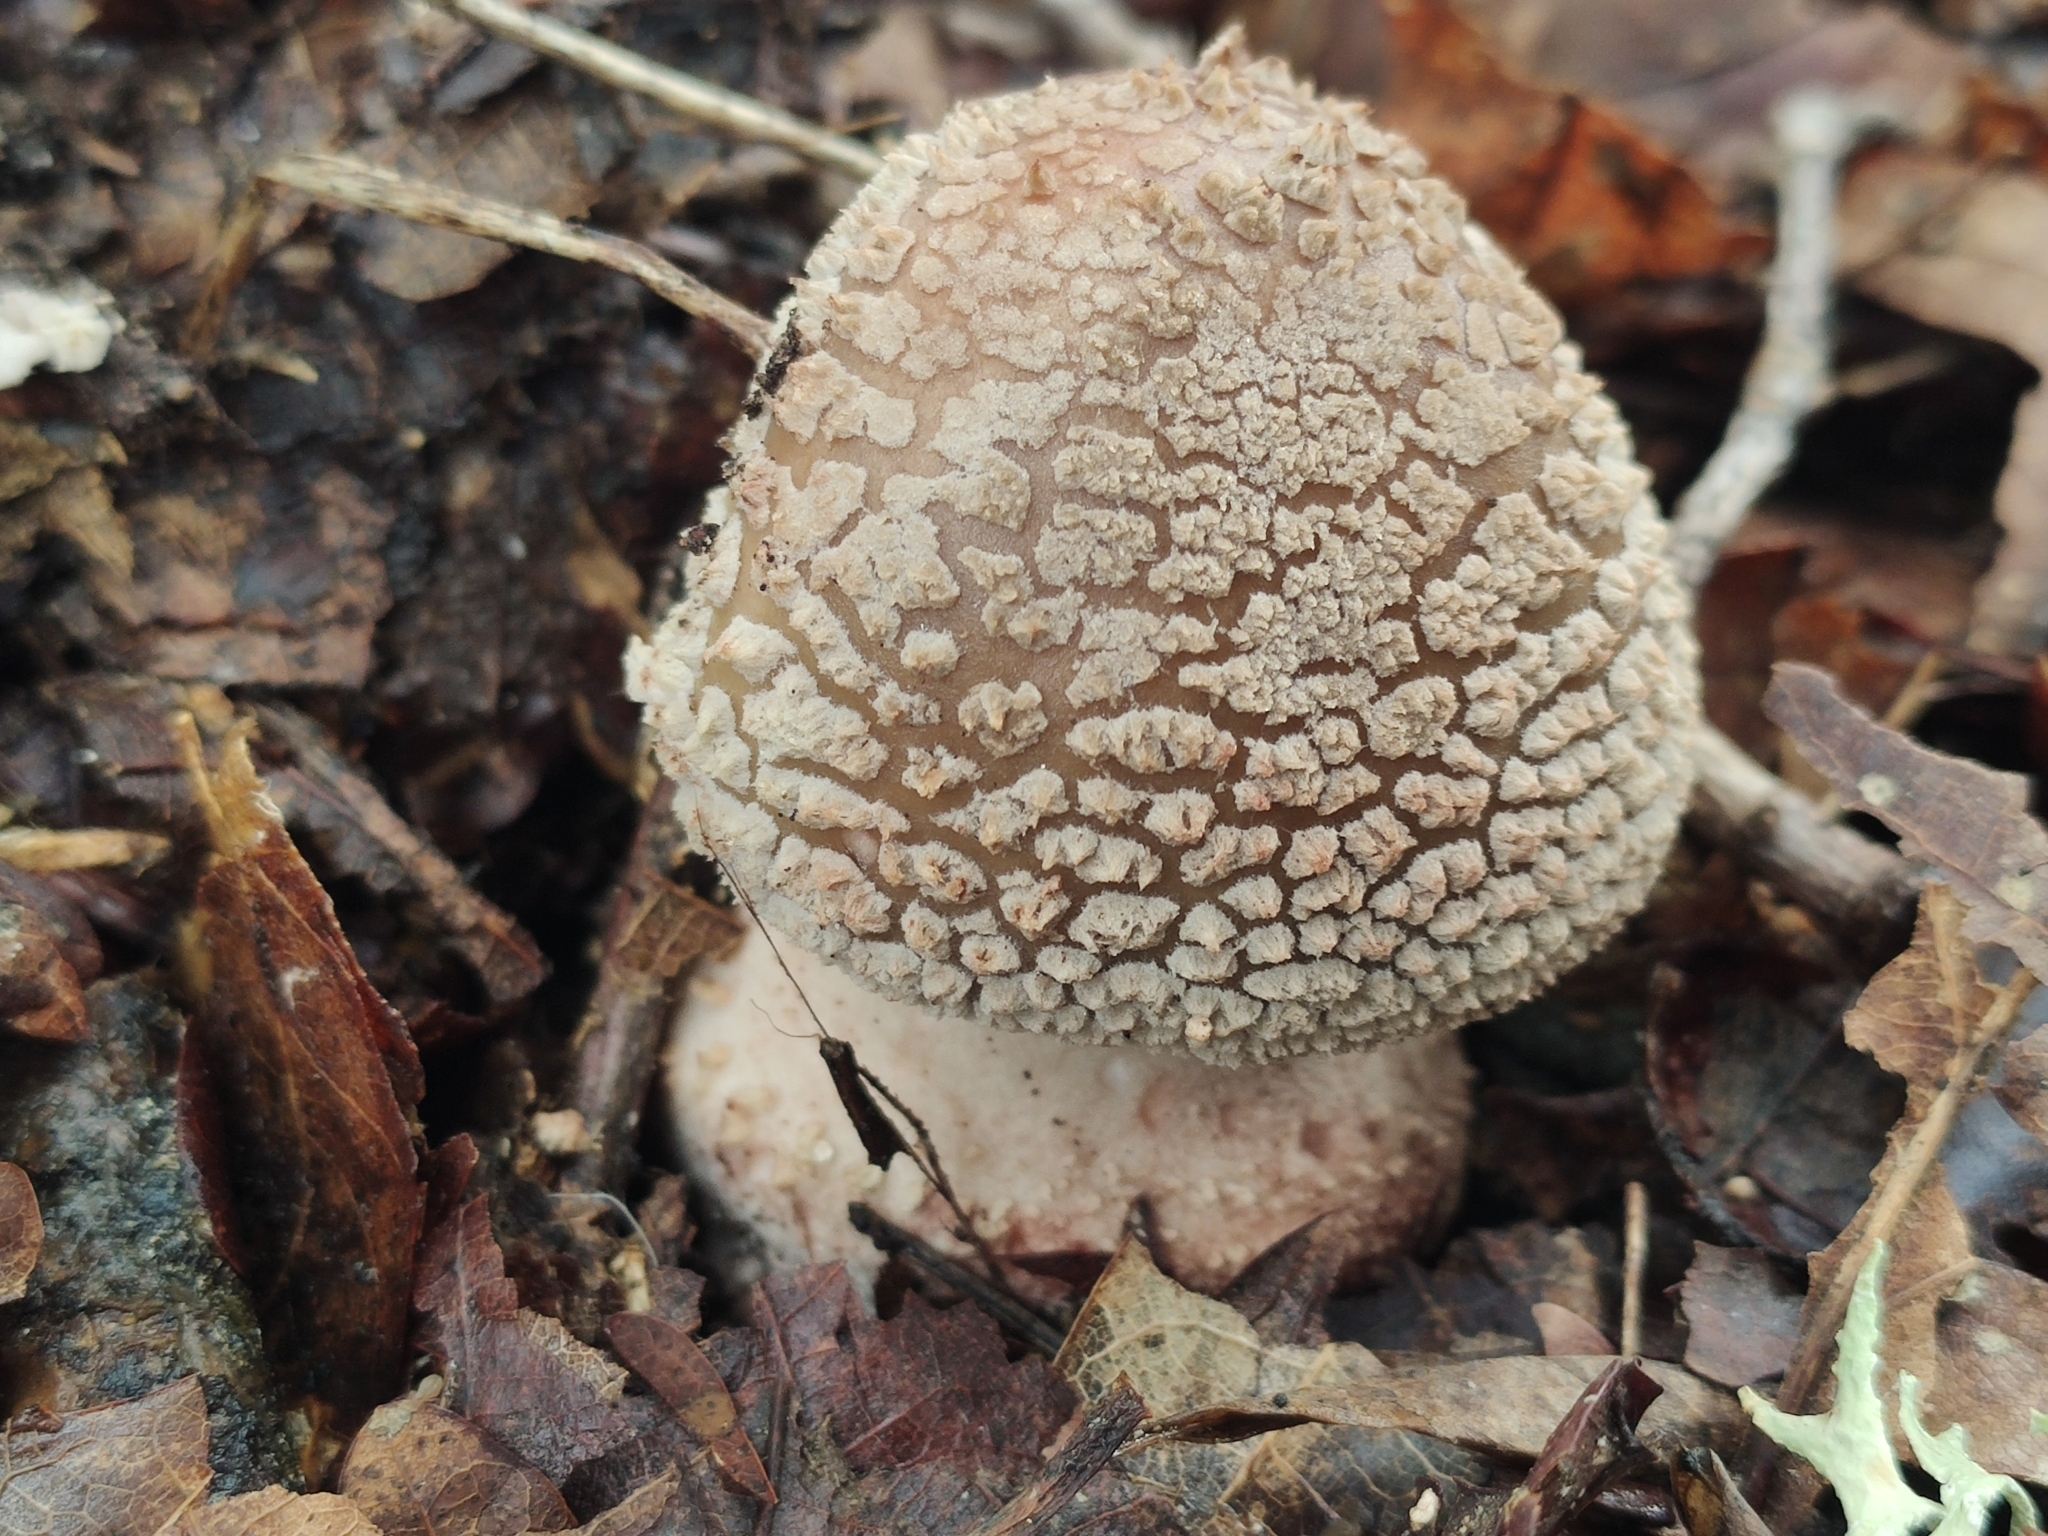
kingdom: Fungi
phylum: Basidiomycota
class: Agaricomycetes
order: Agaricales
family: Amanitaceae
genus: Amanita
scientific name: Amanita rubescens
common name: Blusher
